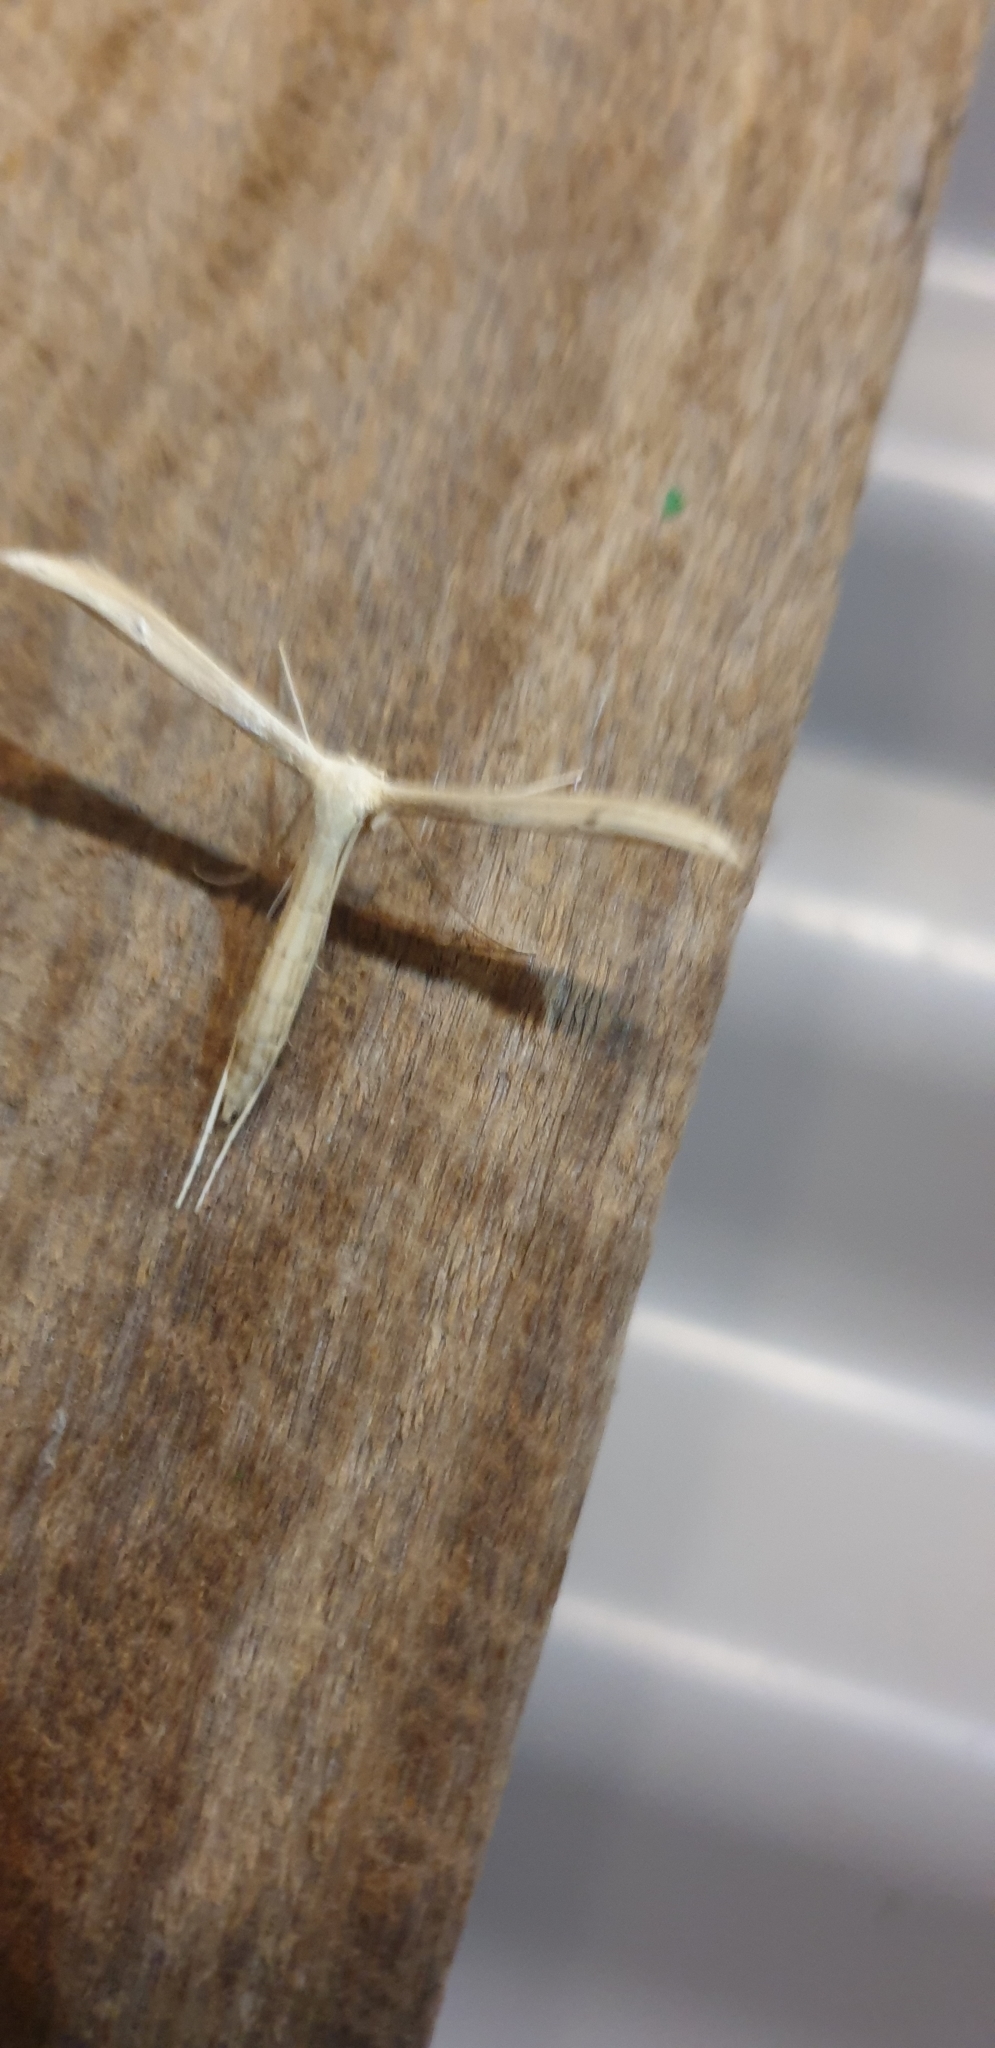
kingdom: Animalia
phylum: Arthropoda
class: Insecta
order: Lepidoptera
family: Pterophoridae
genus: Hellinsia
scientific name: Hellinsia balanotes
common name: Baccharis borer
